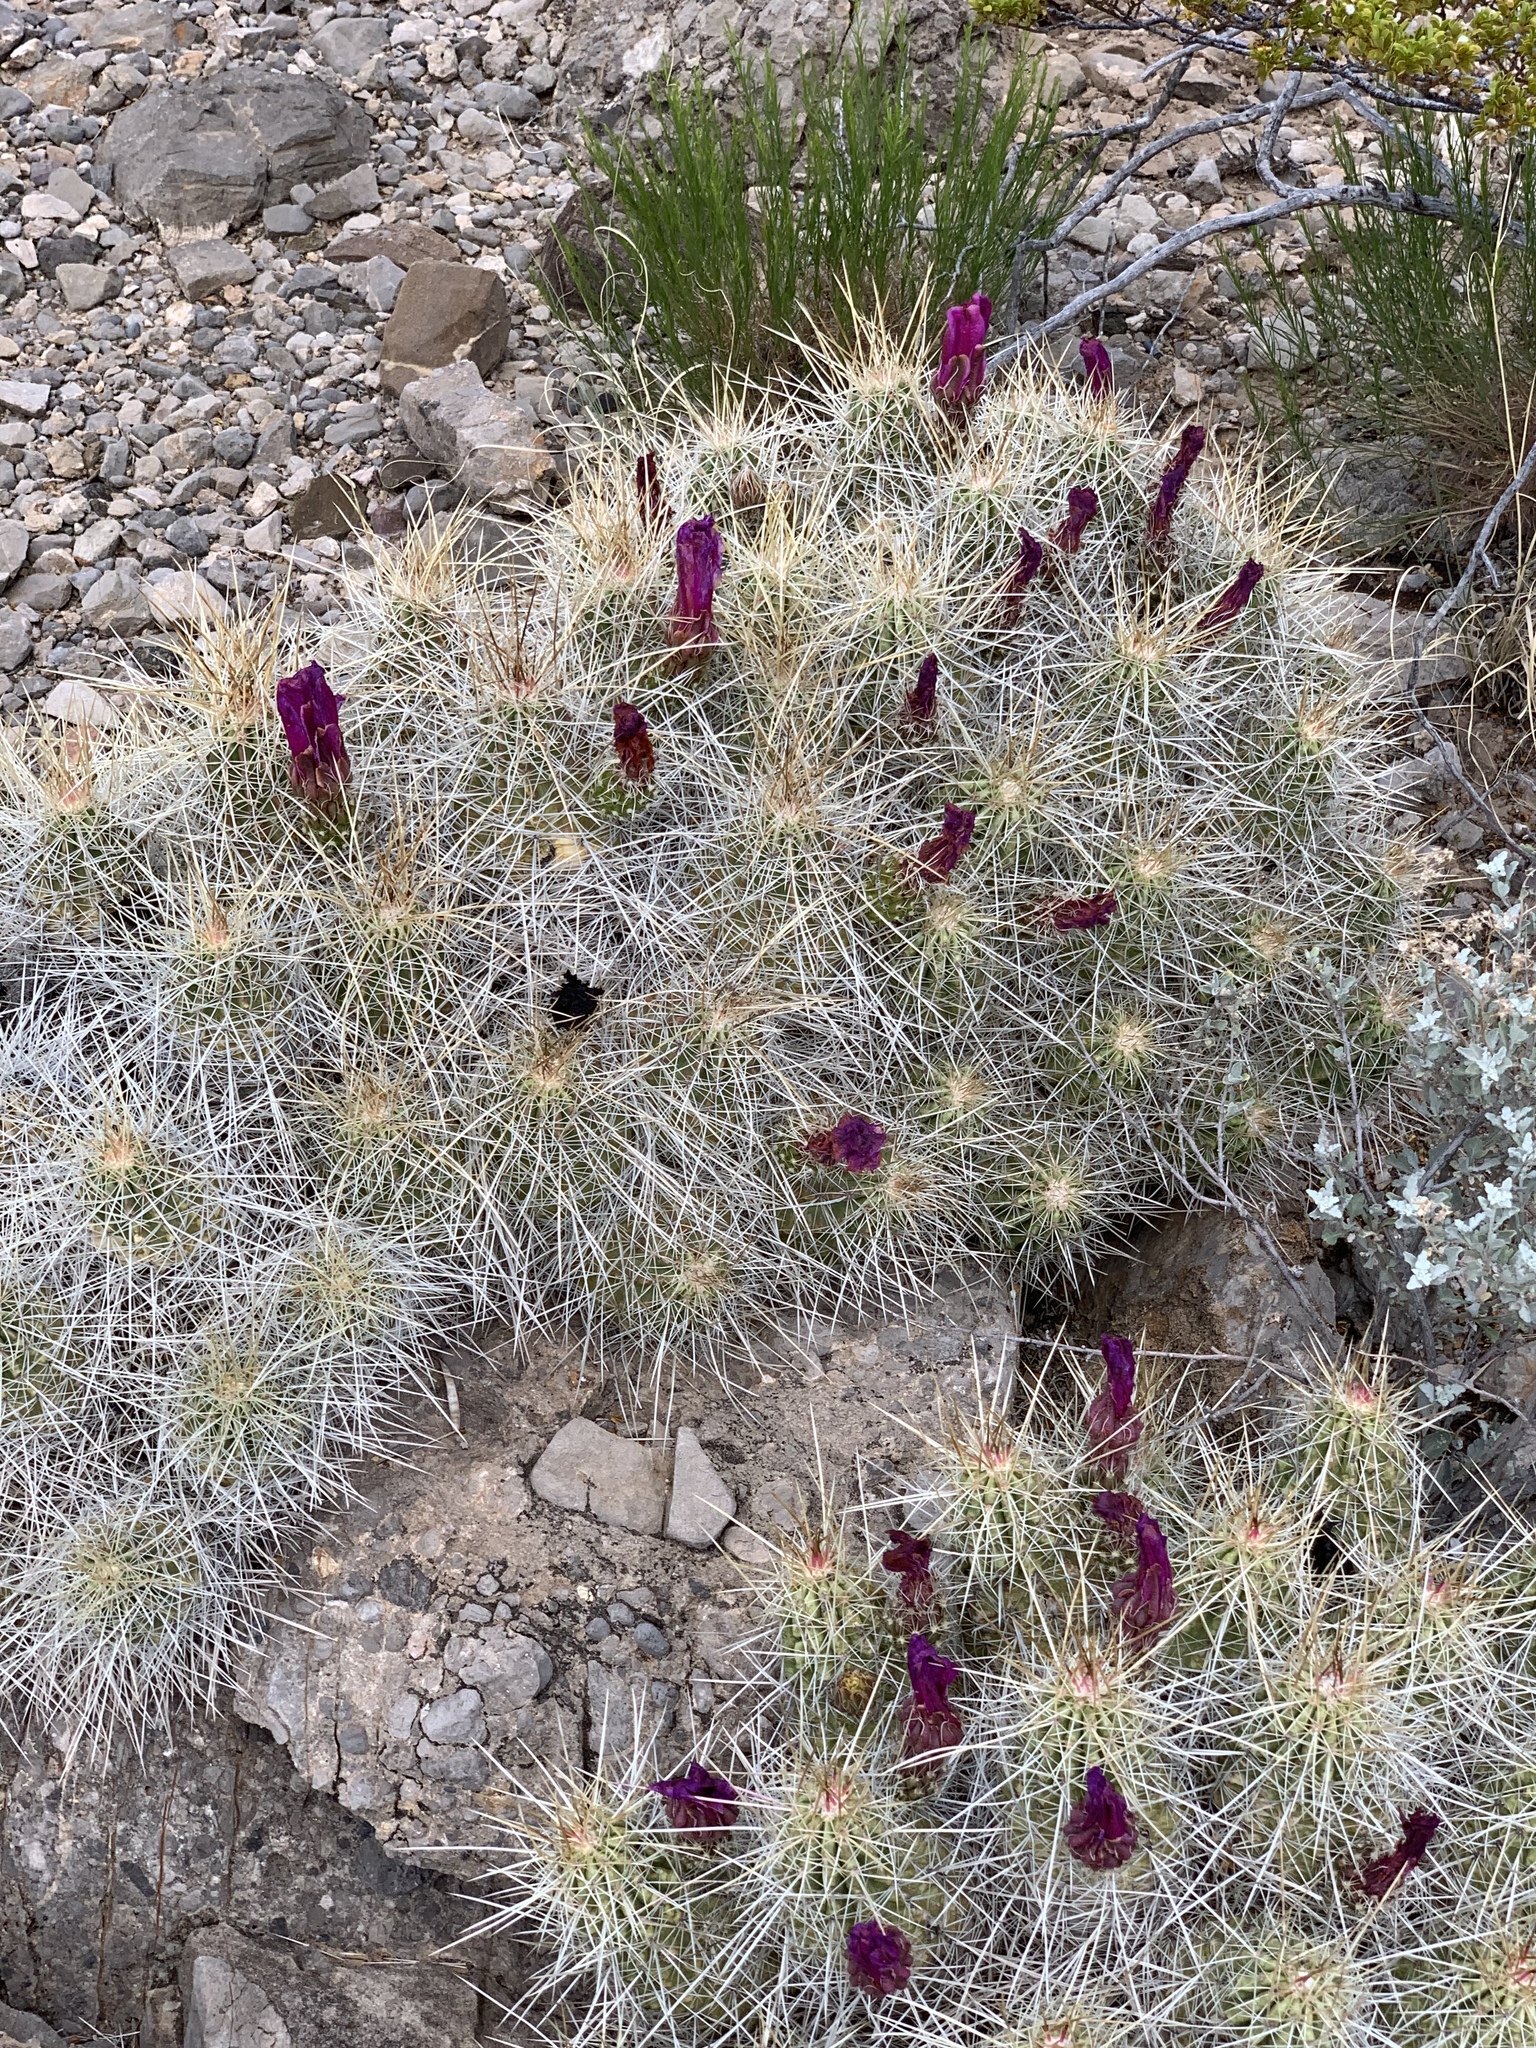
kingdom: Plantae
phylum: Tracheophyta
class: Magnoliopsida
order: Caryophyllales
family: Cactaceae
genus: Echinocereus
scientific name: Echinocereus stramineus
